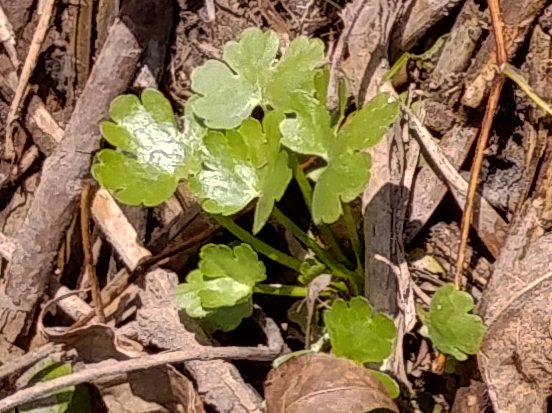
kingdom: Plantae
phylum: Tracheophyta
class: Magnoliopsida
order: Ranunculales
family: Ranunculaceae
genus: Ranunculus
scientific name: Ranunculus sceleratus
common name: Celery-leaved buttercup
